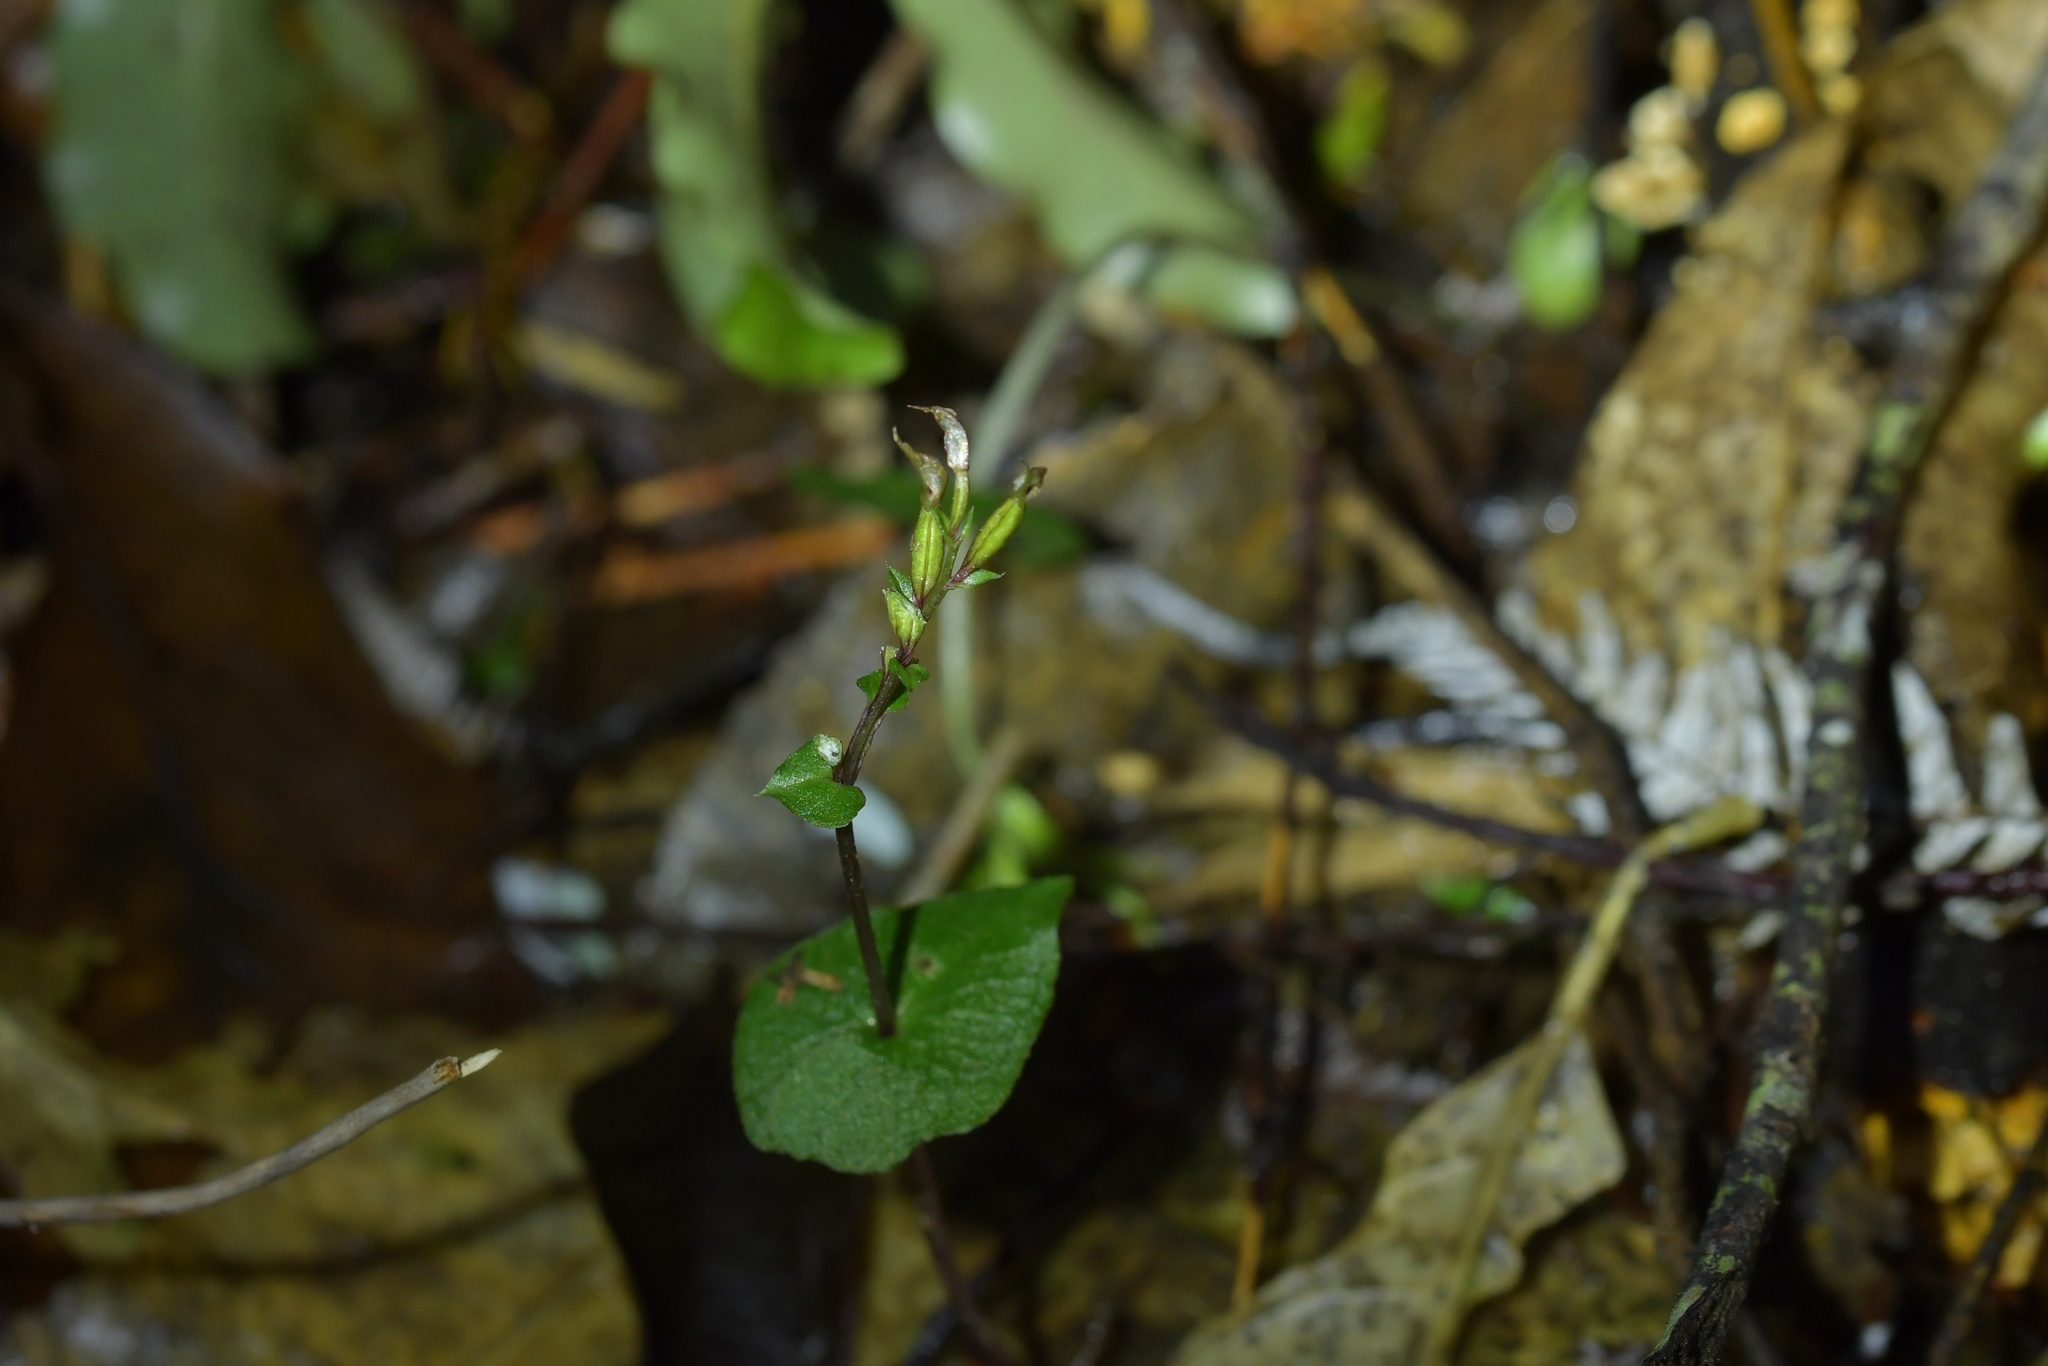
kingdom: Plantae
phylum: Tracheophyta
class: Liliopsida
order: Asparagales
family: Orchidaceae
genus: Acianthus
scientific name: Acianthus sinclairii
